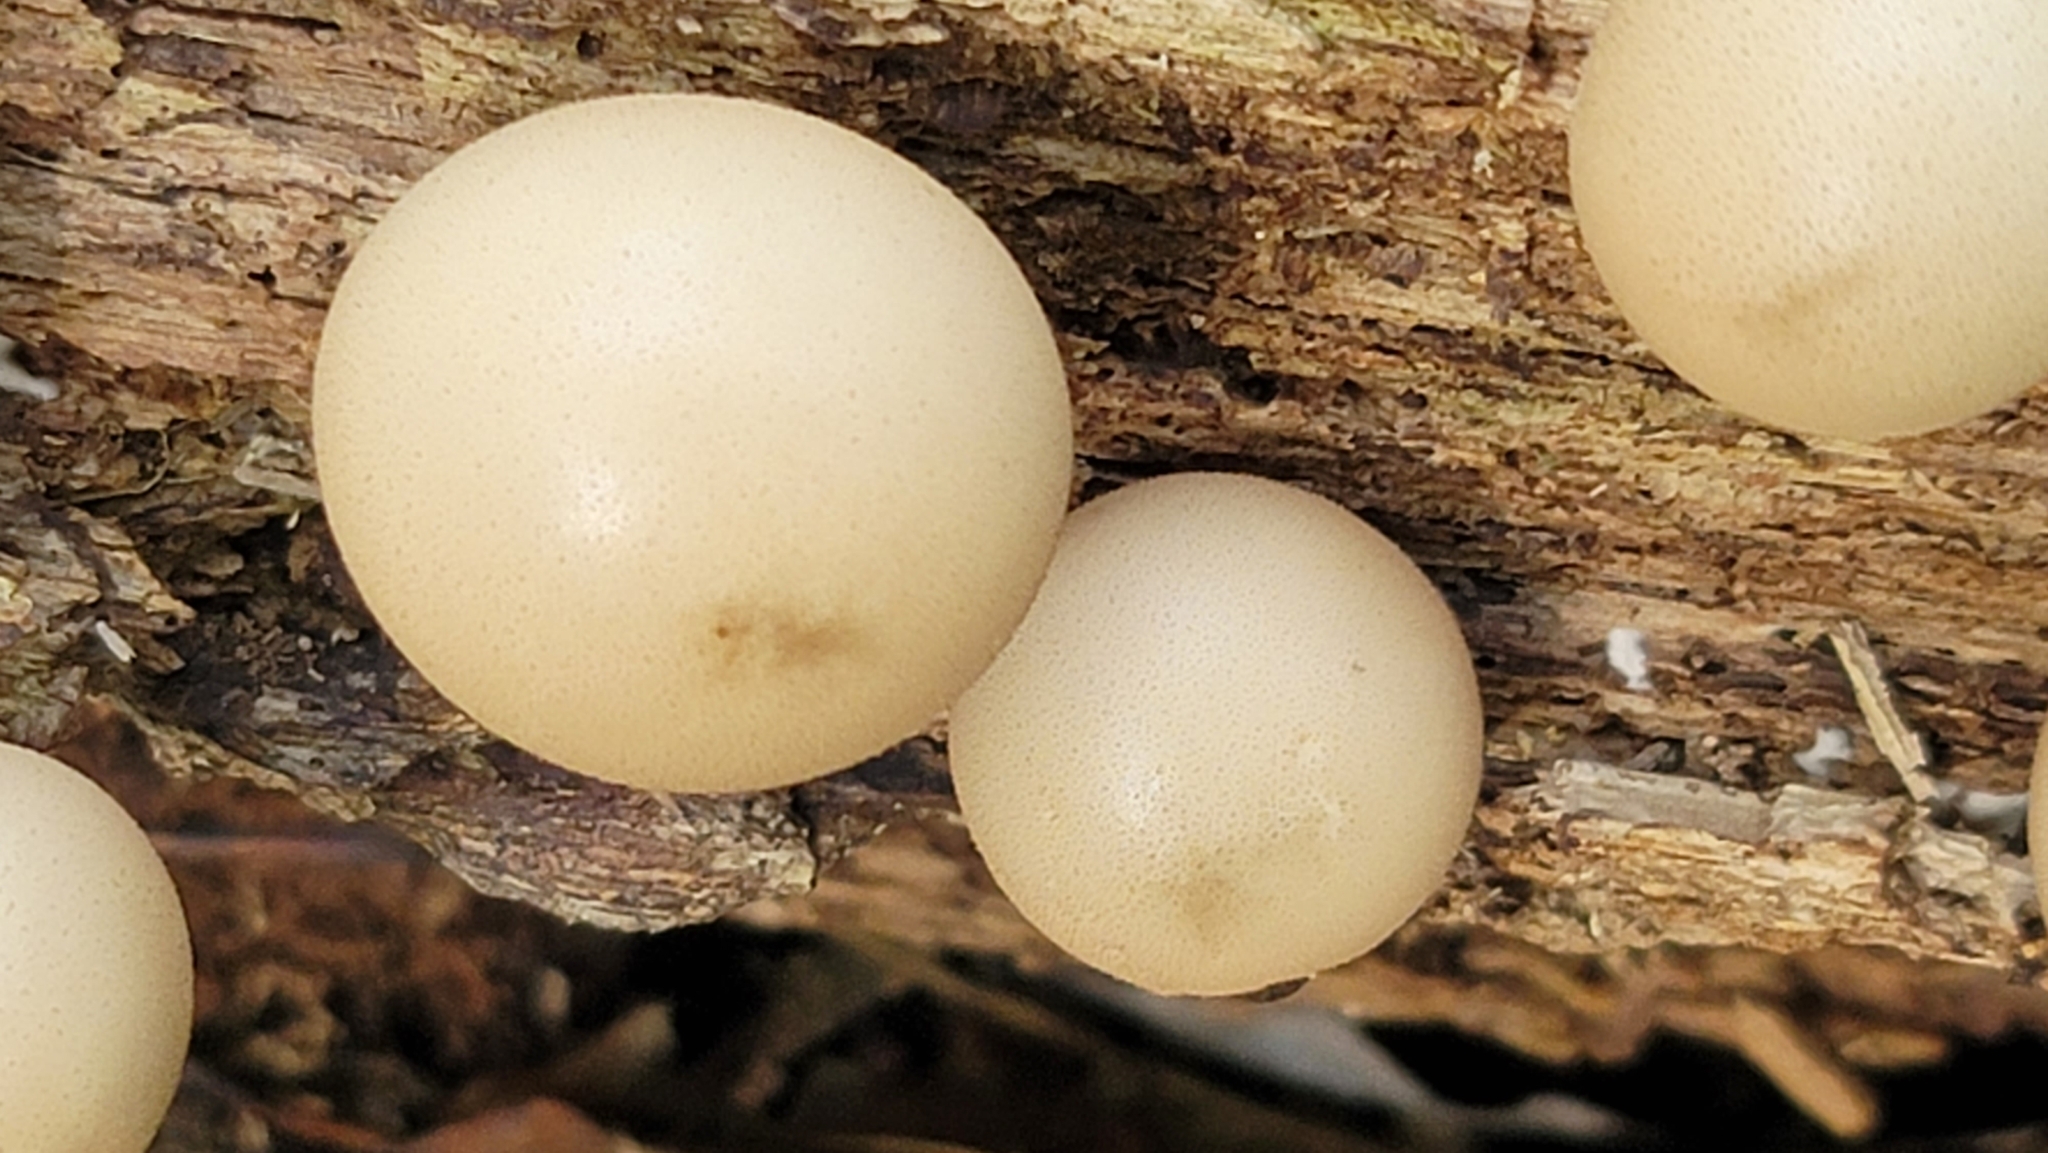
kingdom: Fungi
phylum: Basidiomycota
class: Agaricomycetes
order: Agaricales
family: Lycoperdaceae
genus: Apioperdon
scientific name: Apioperdon pyriforme
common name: Pear-shaped puffball
